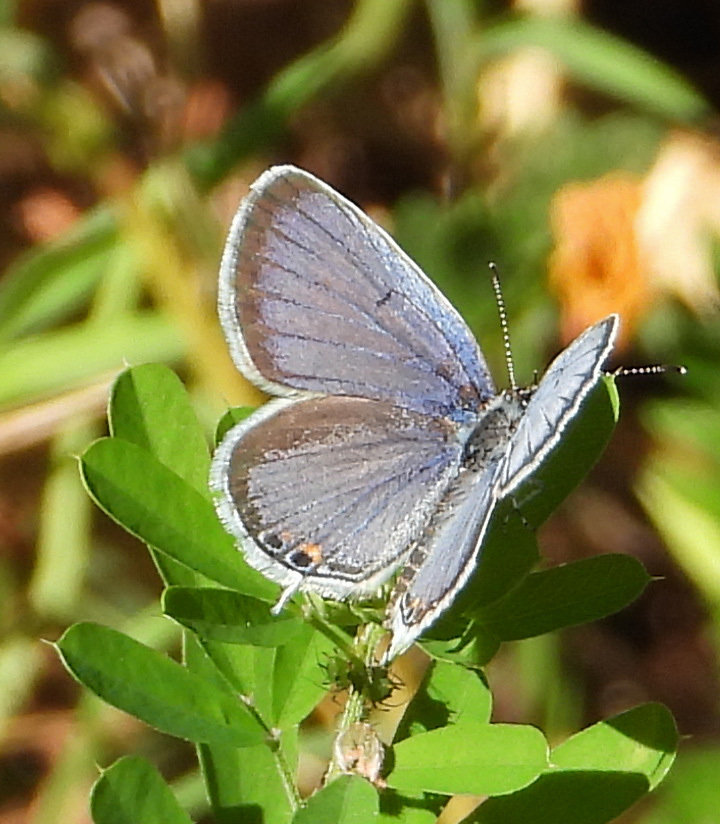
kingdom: Animalia
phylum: Arthropoda
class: Insecta
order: Lepidoptera
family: Lycaenidae
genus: Elkalyce
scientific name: Elkalyce comyntas
